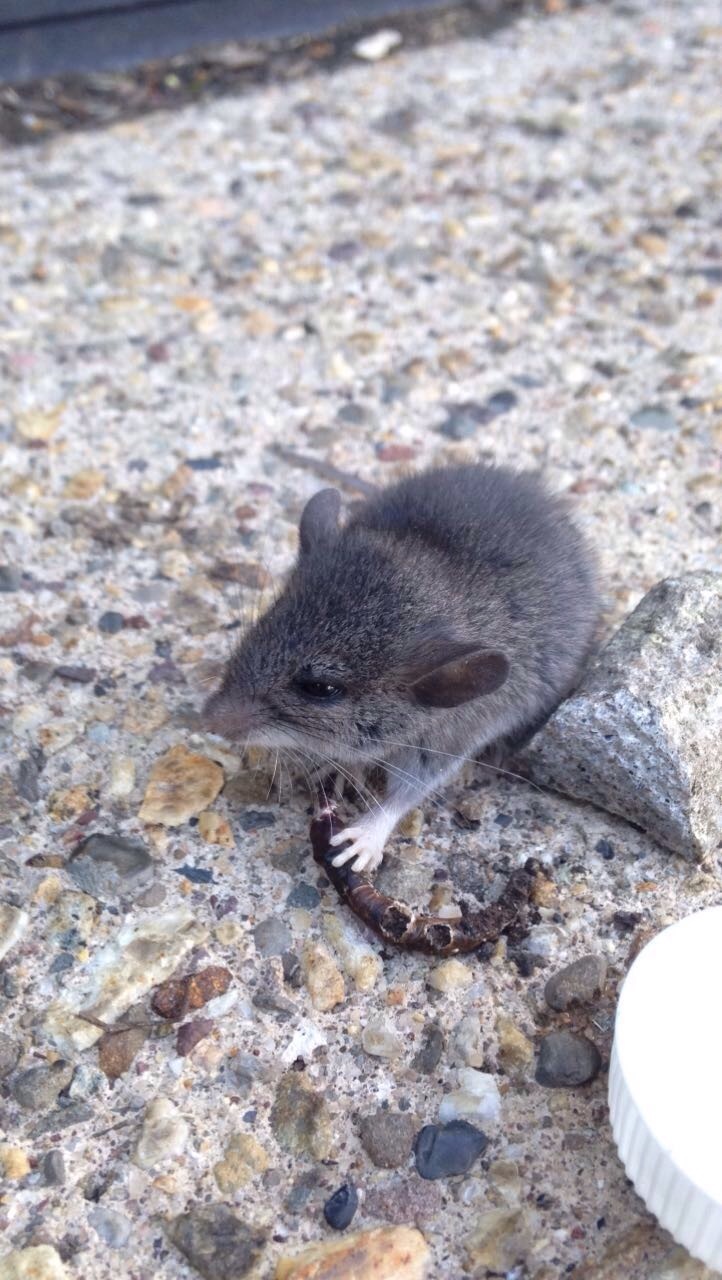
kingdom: Animalia
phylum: Chordata
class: Mammalia
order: Rodentia
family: Cricetidae
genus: Peromyscus
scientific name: Peromyscus leucopus
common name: White-footed deermouse
